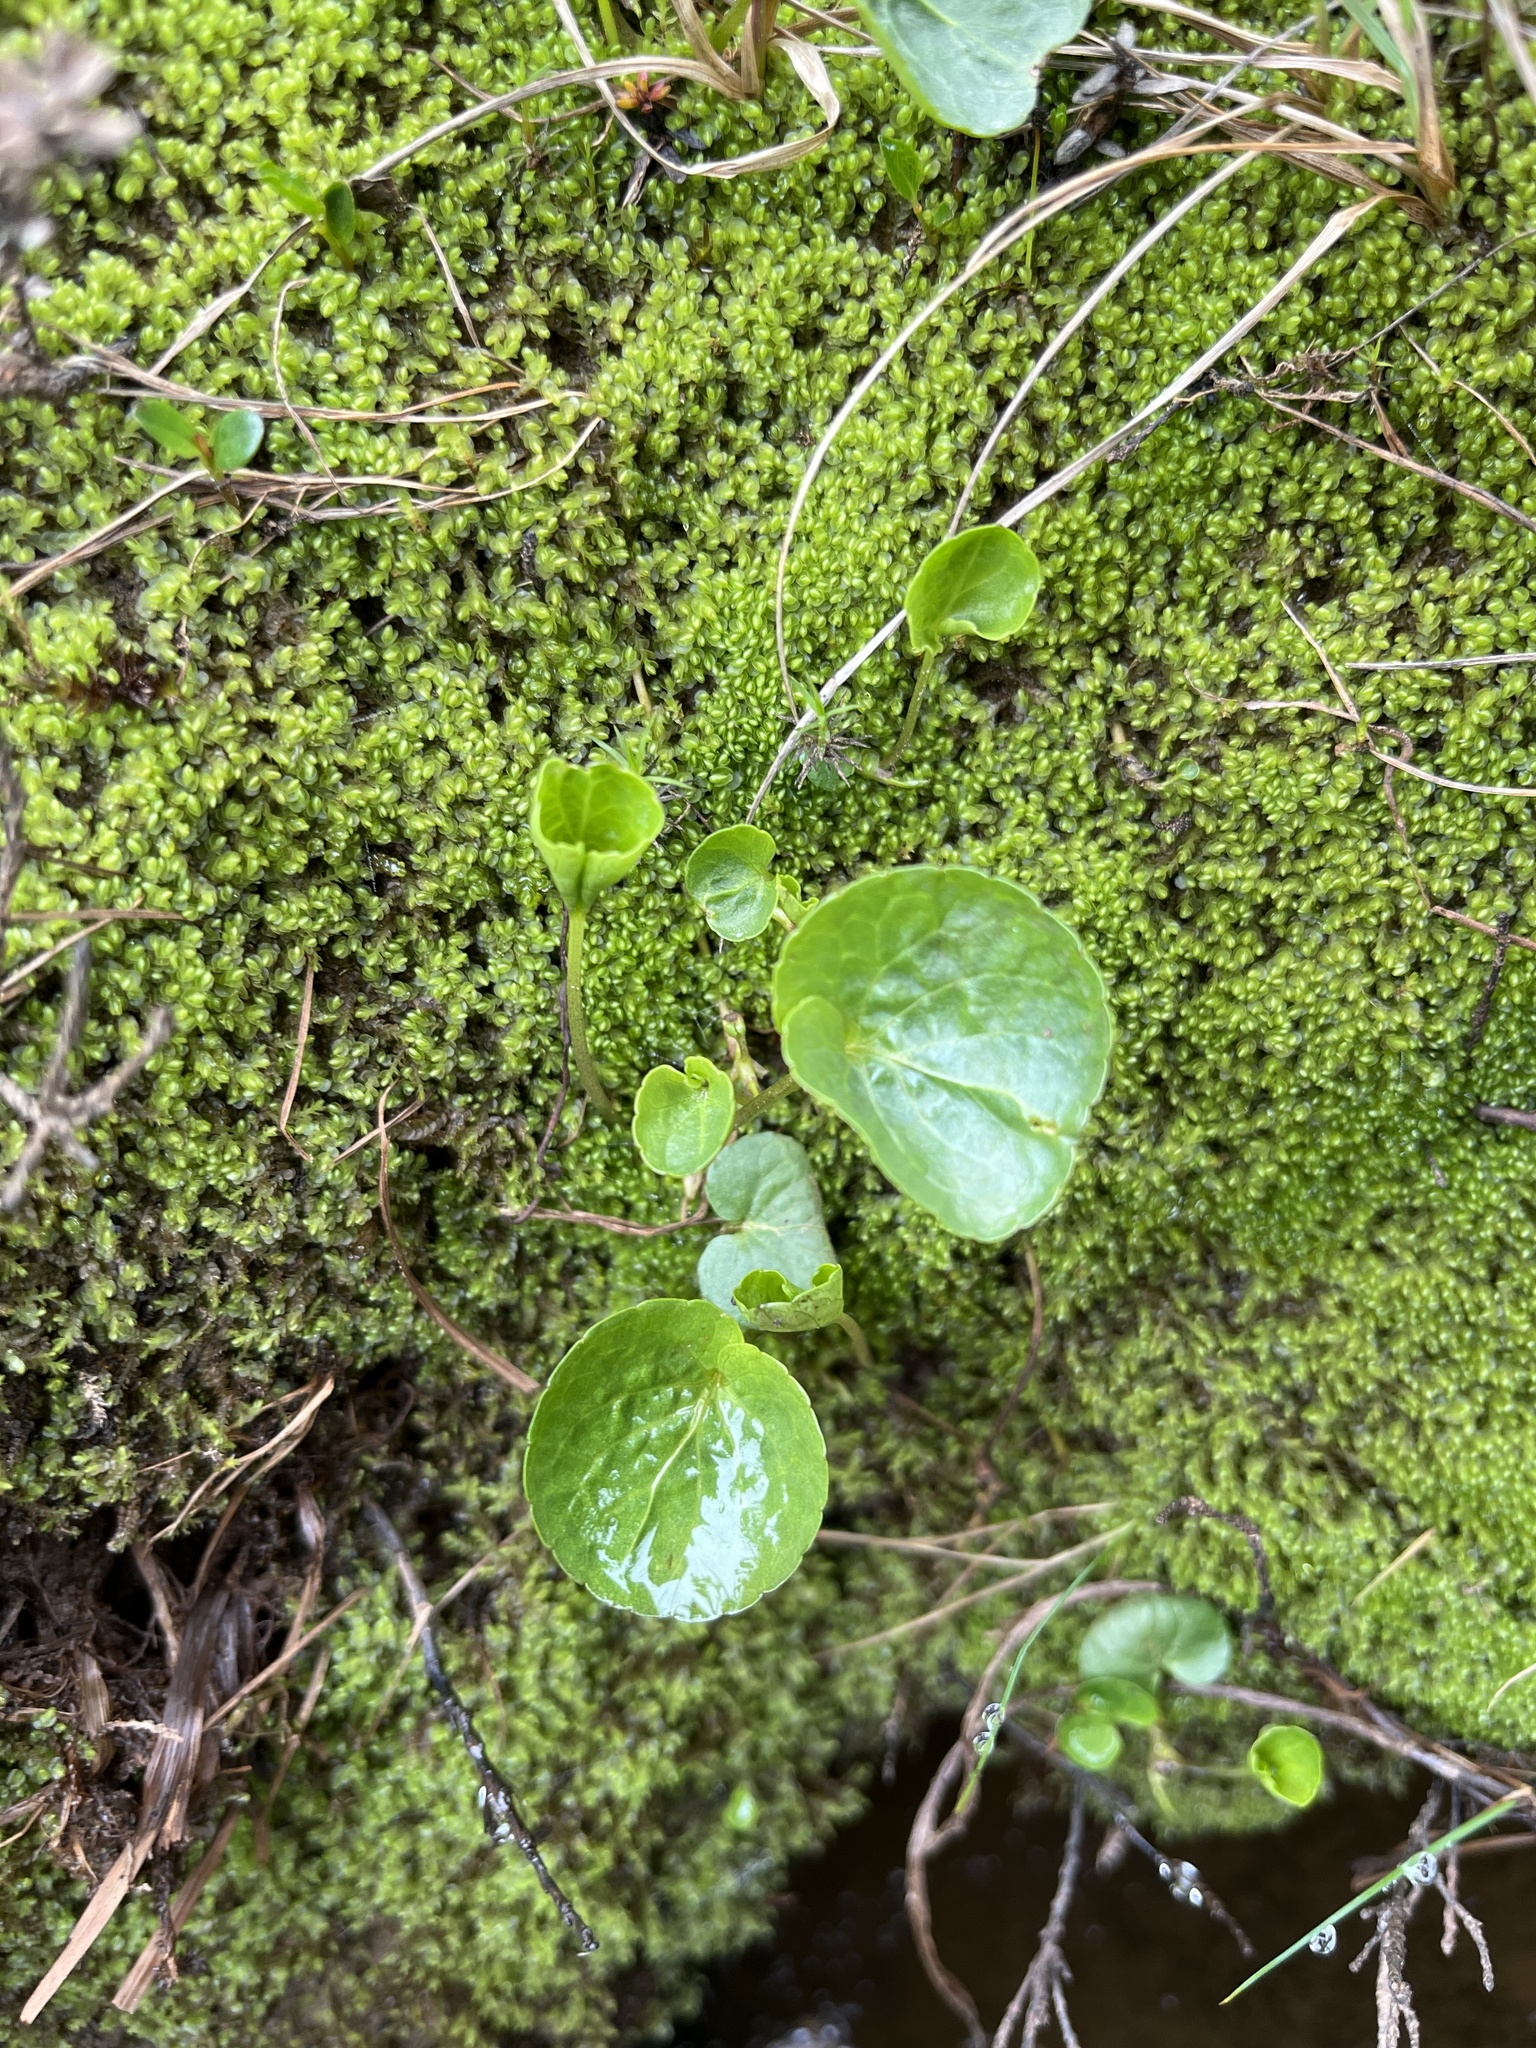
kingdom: Plantae
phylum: Tracheophyta
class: Magnoliopsida
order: Malpighiales
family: Violaceae
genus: Viola
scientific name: Viola palustris
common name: Marsh violet
